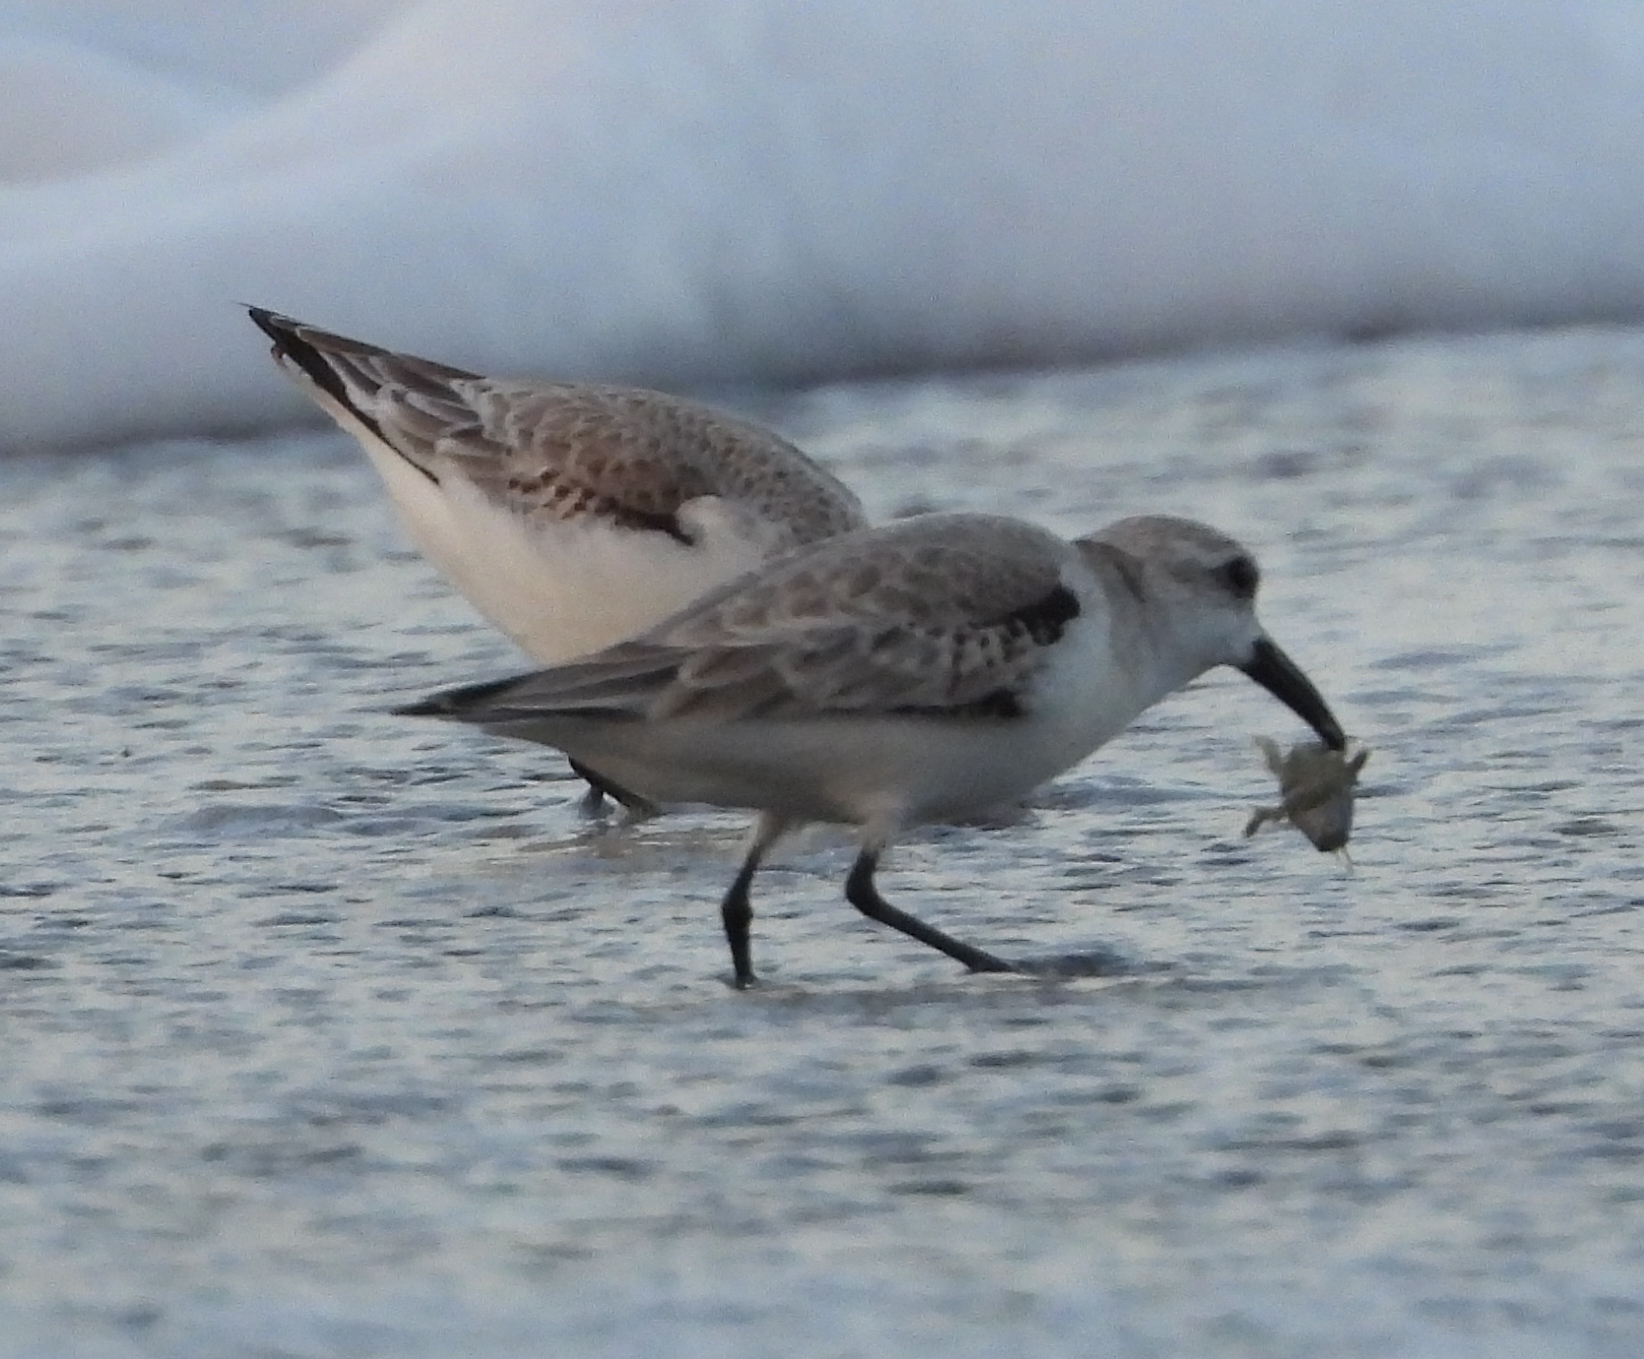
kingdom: Animalia
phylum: Chordata
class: Aves
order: Charadriiformes
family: Scolopacidae
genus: Calidris
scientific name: Calidris alba
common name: Sanderling
